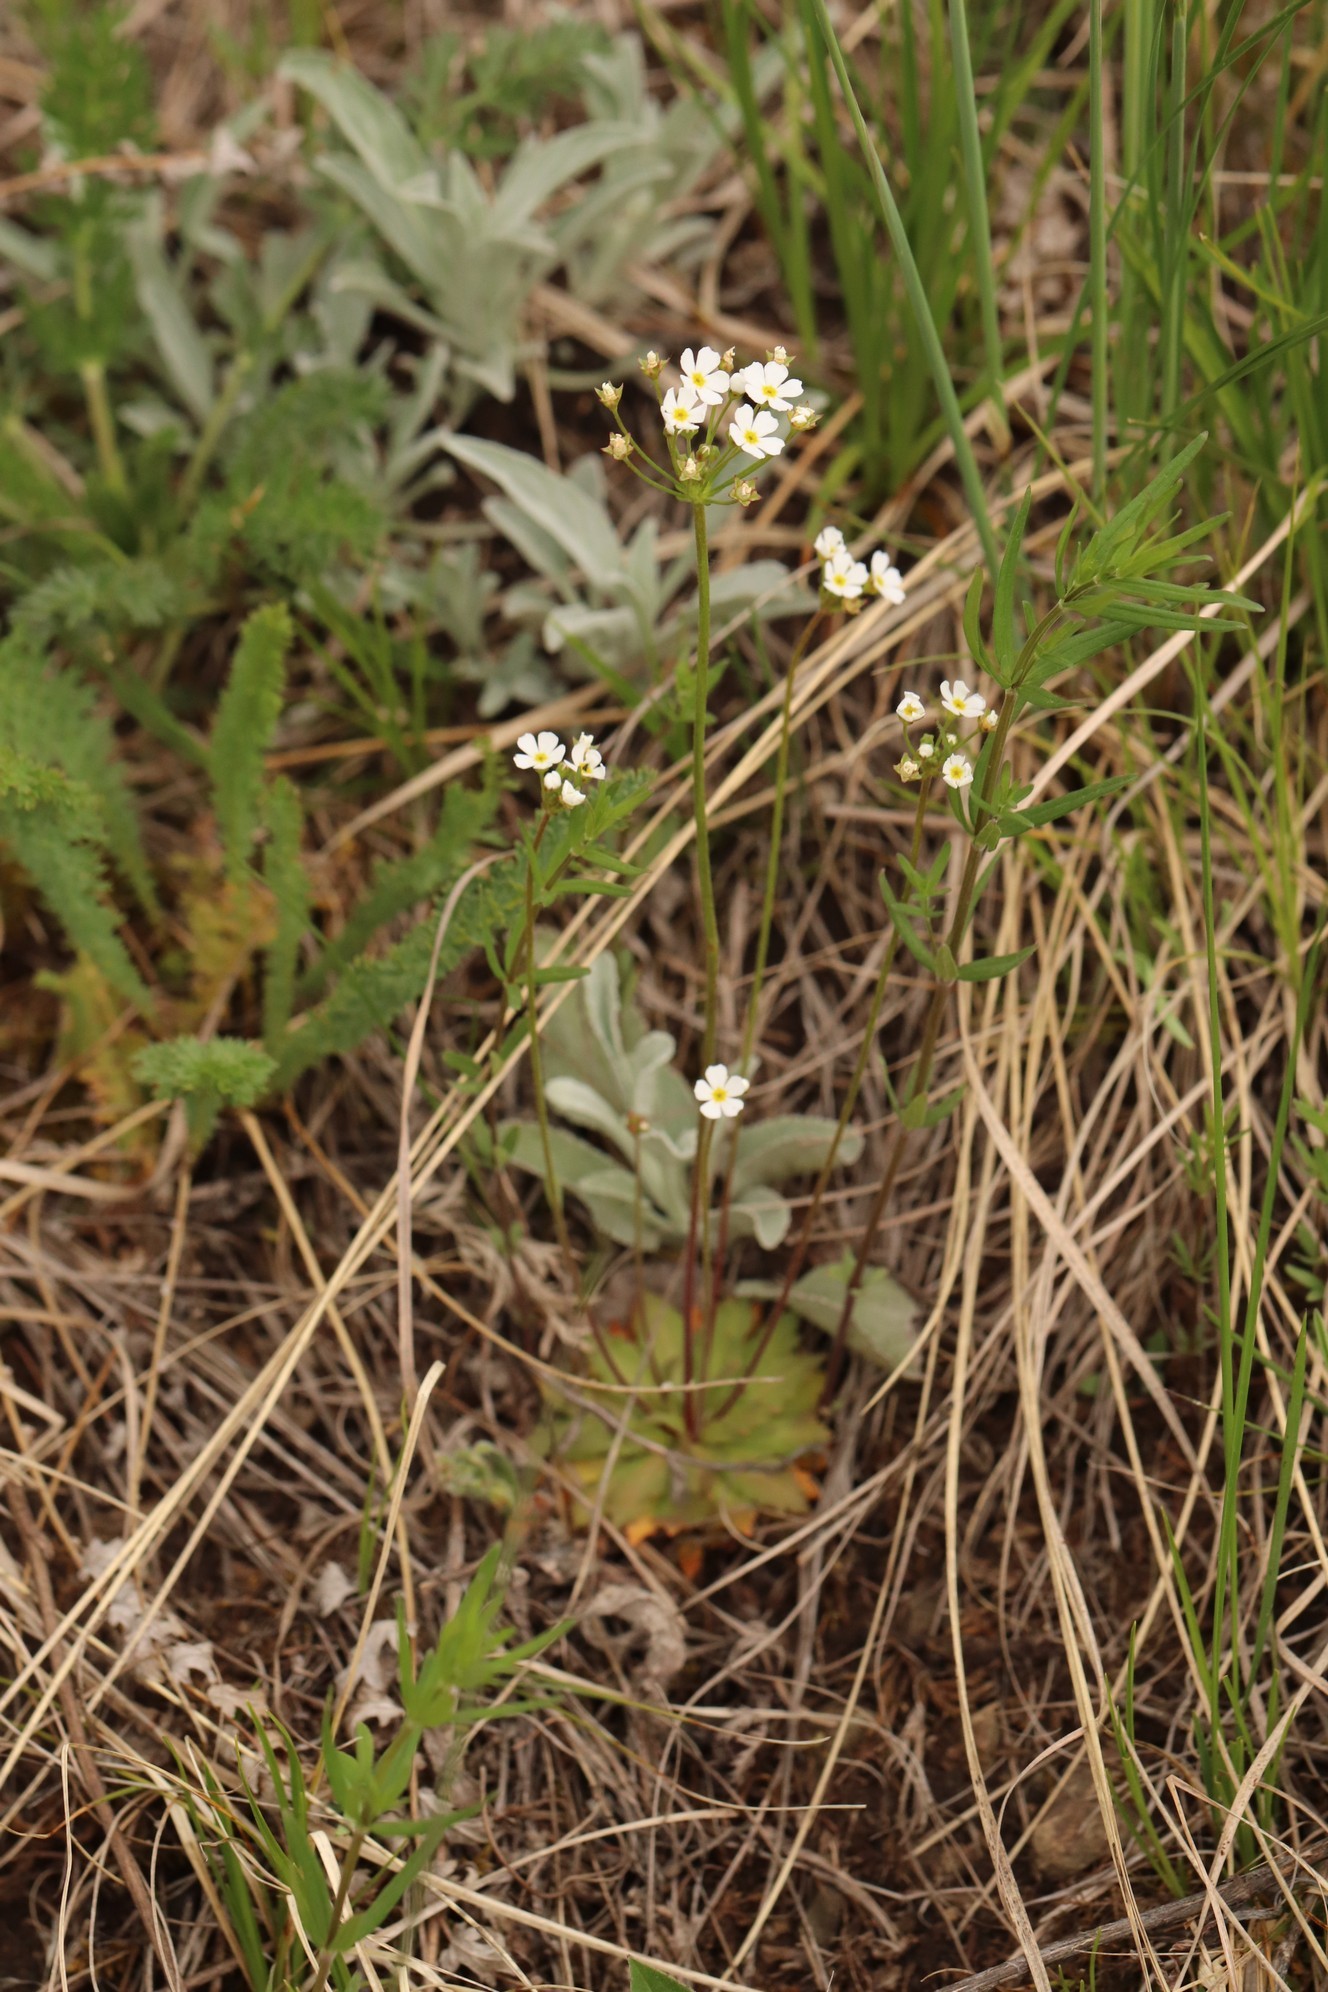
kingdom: Plantae
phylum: Tracheophyta
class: Magnoliopsida
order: Ericales
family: Primulaceae
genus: Androsace
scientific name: Androsace septentrionalis
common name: Hairy northern fairy-candelabra
